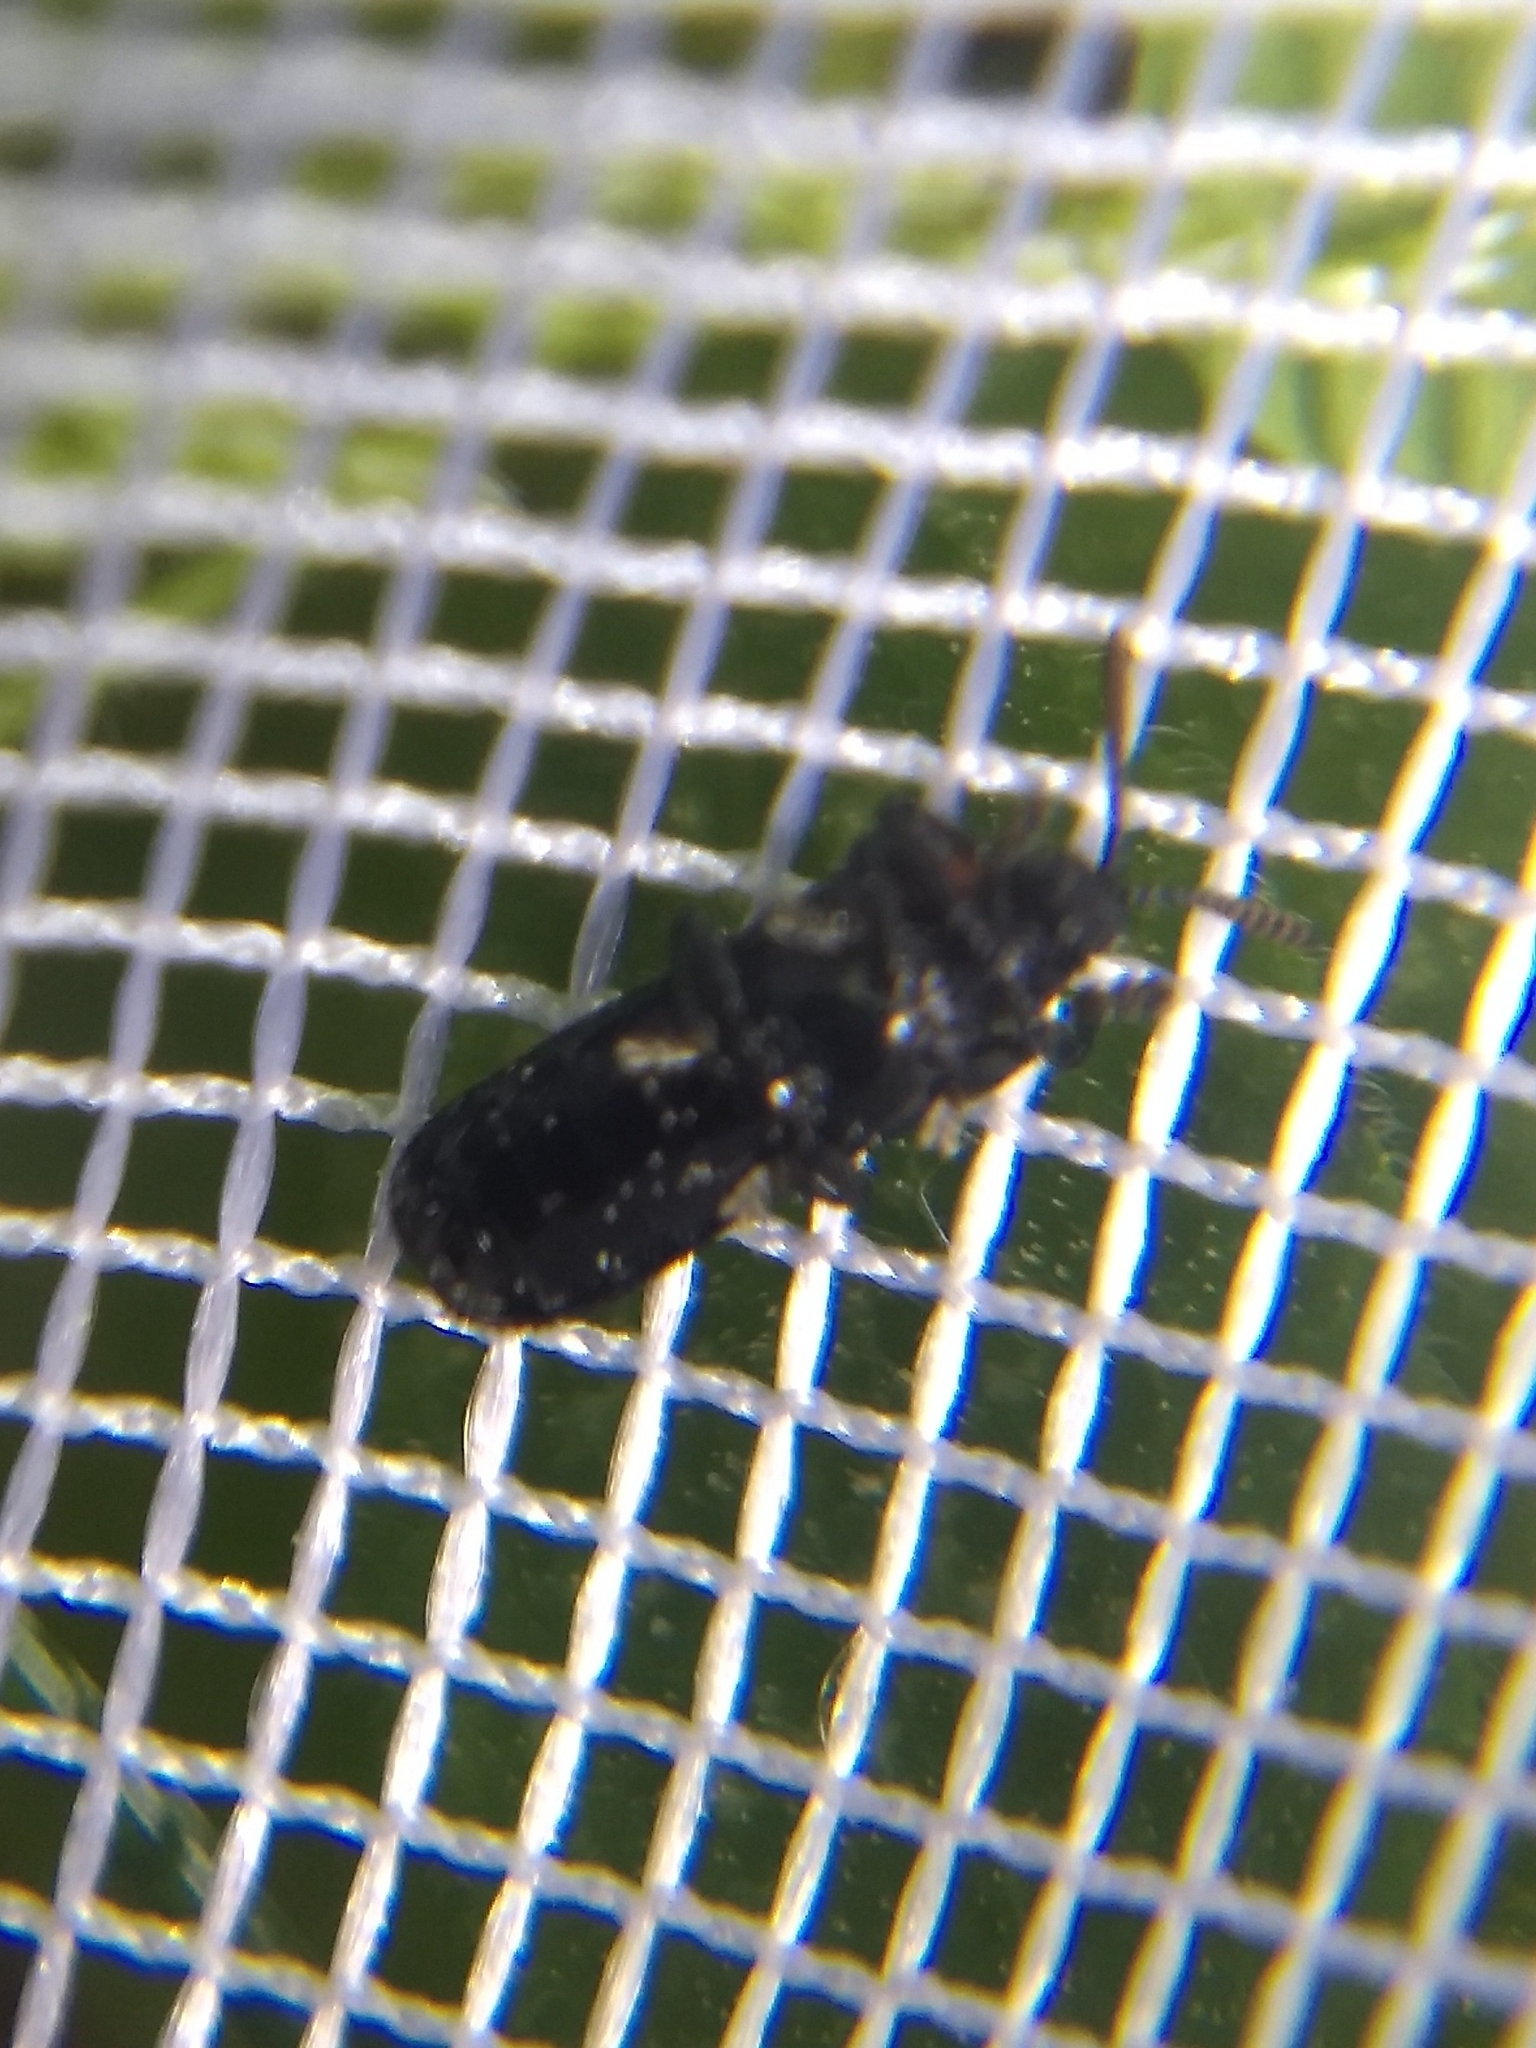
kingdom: Animalia
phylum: Arthropoda
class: Insecta
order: Coleoptera
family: Chrysomelidae
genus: Chalepus
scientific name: Chalepus walshii
